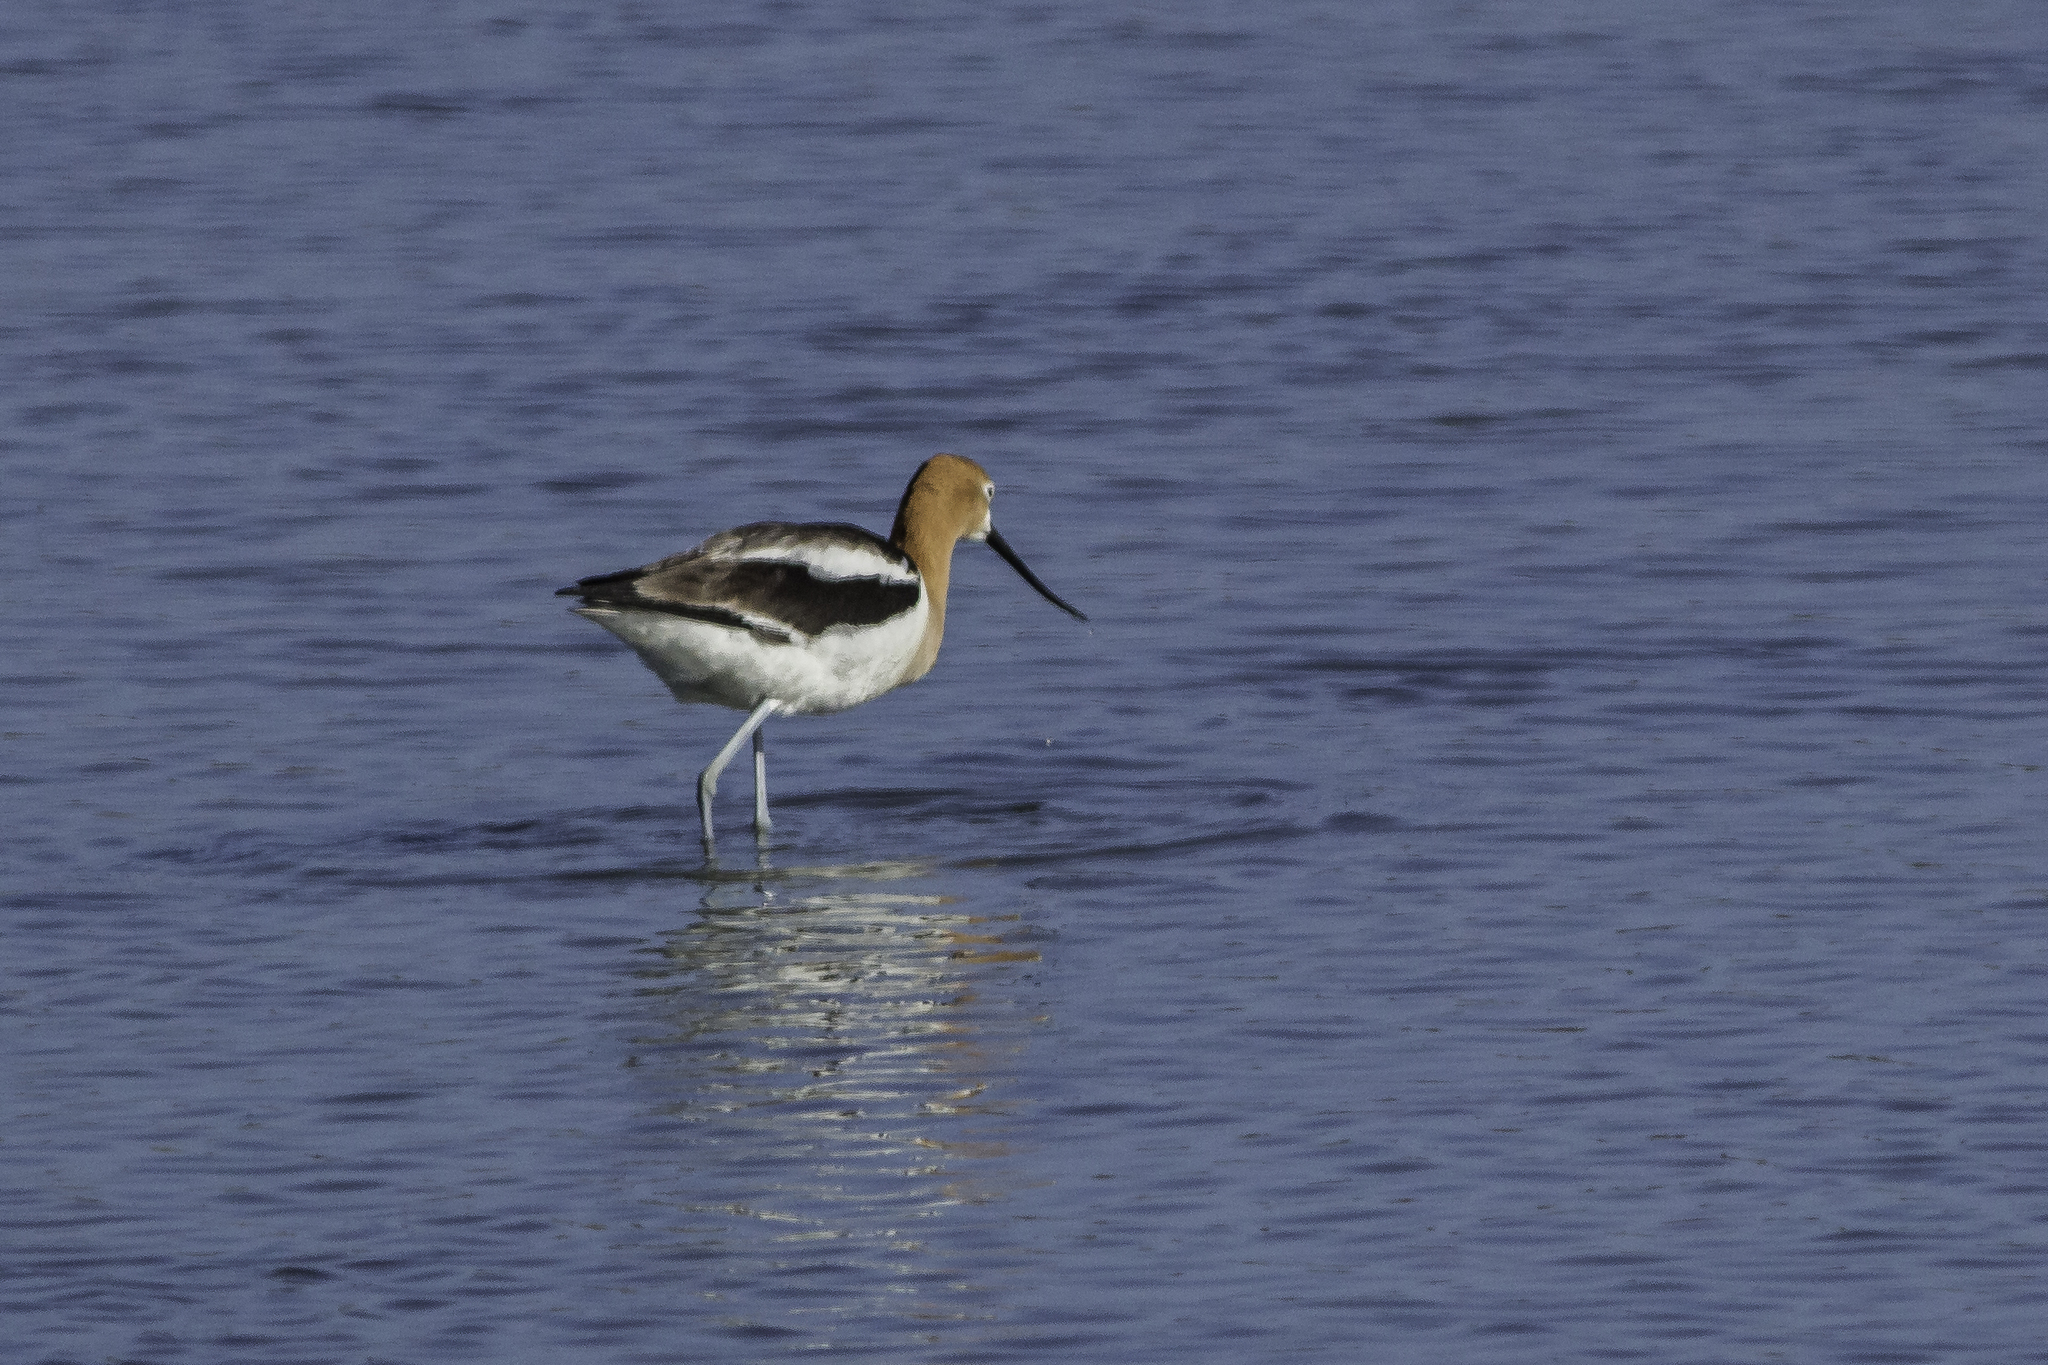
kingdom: Animalia
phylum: Chordata
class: Aves
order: Charadriiformes
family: Recurvirostridae
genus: Recurvirostra
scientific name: Recurvirostra americana
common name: American avocet
